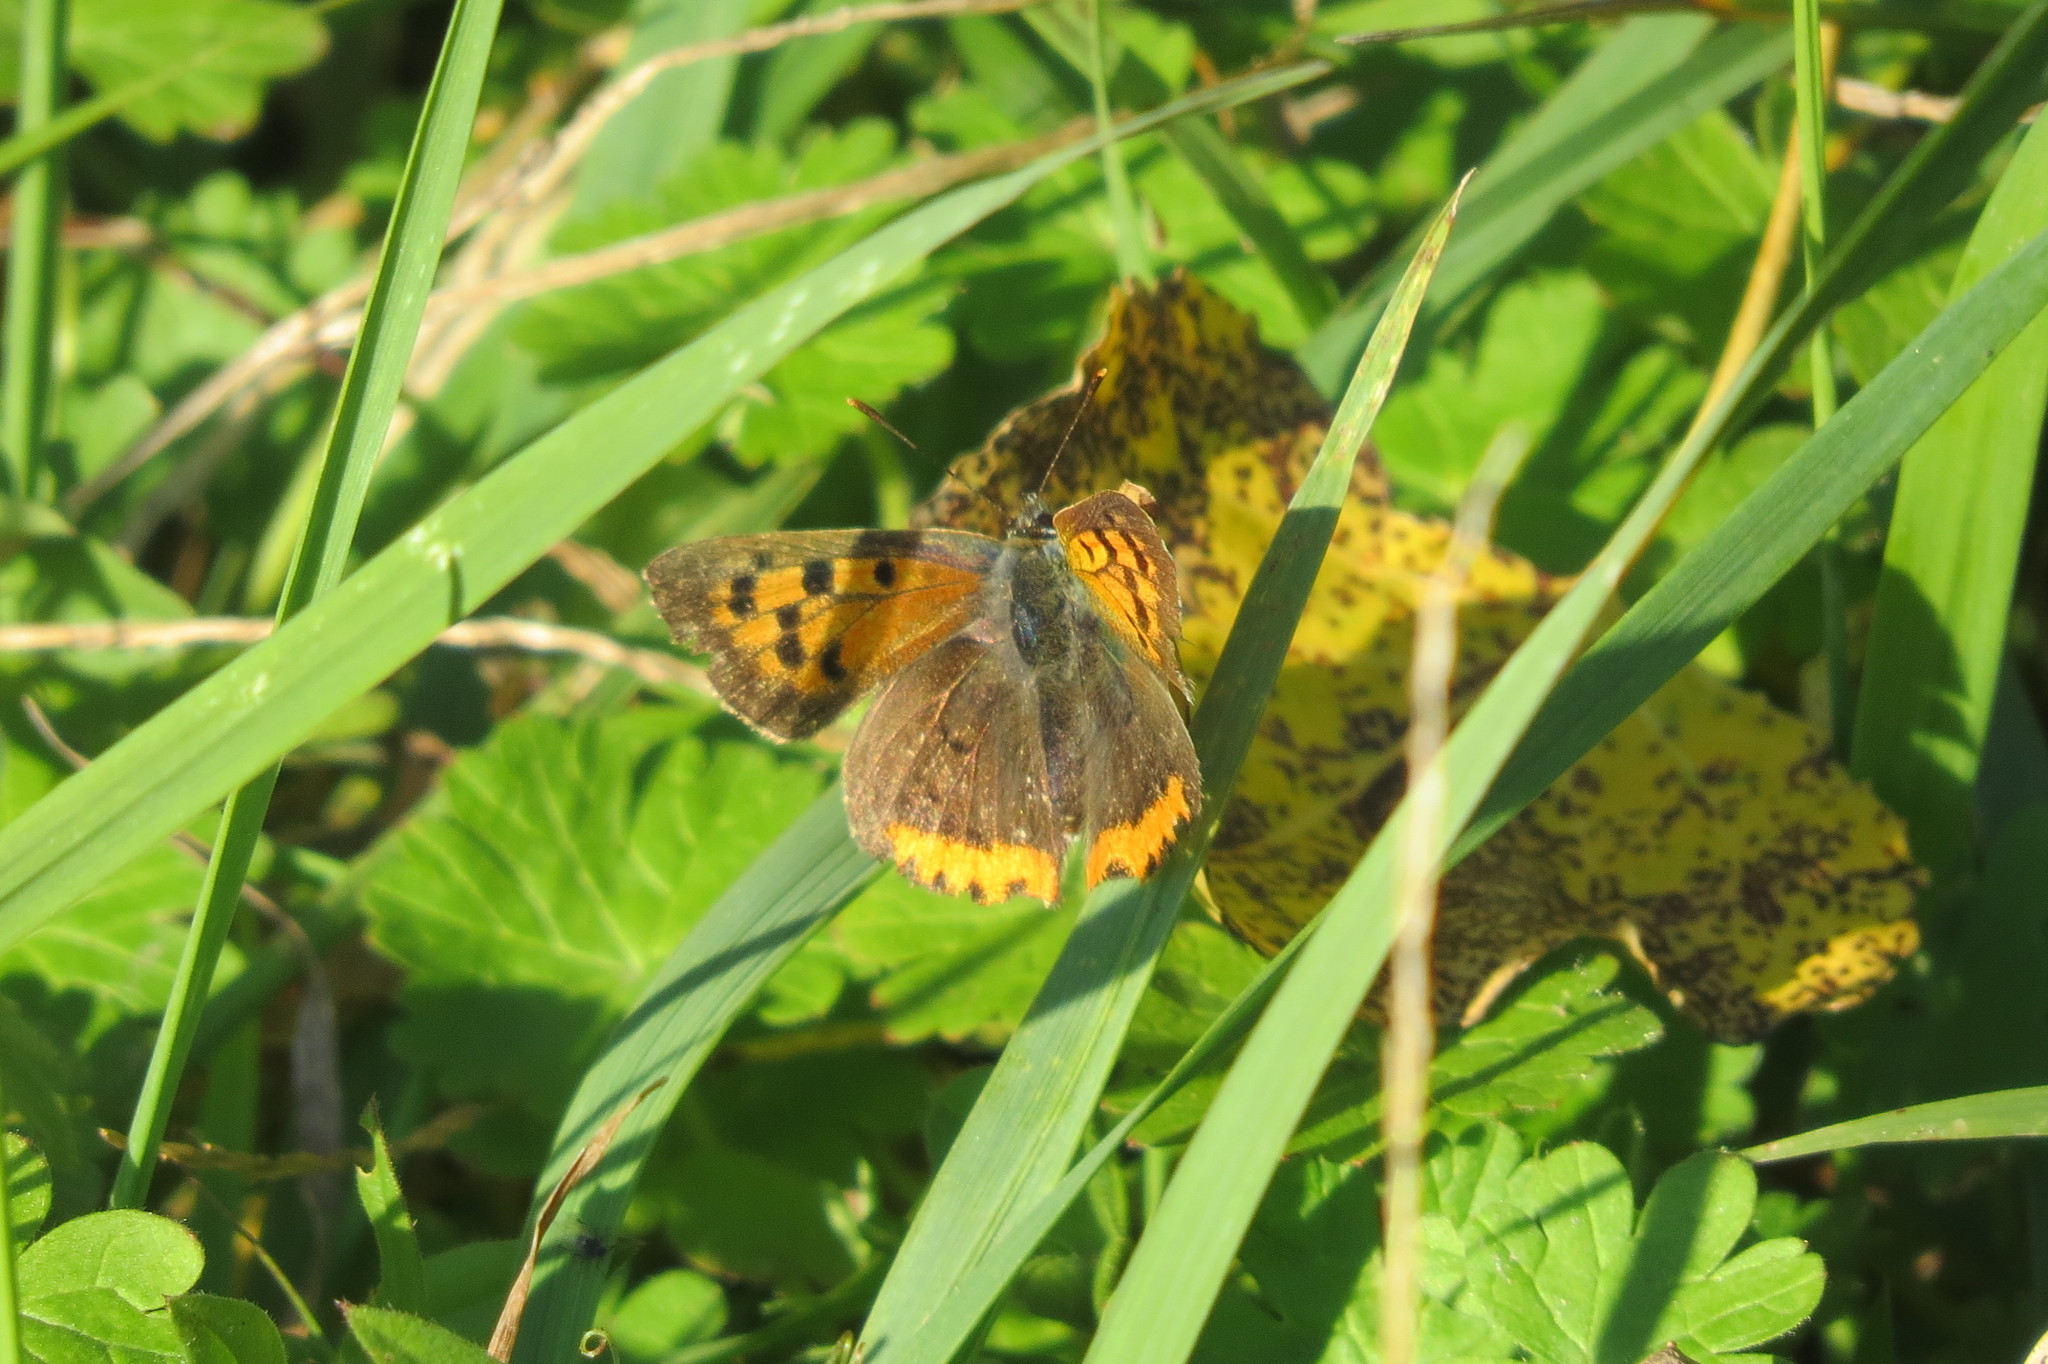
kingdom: Animalia
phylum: Arthropoda
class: Insecta
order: Lepidoptera
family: Lycaenidae
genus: Lycaena
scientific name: Lycaena phlaeas
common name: Small copper
